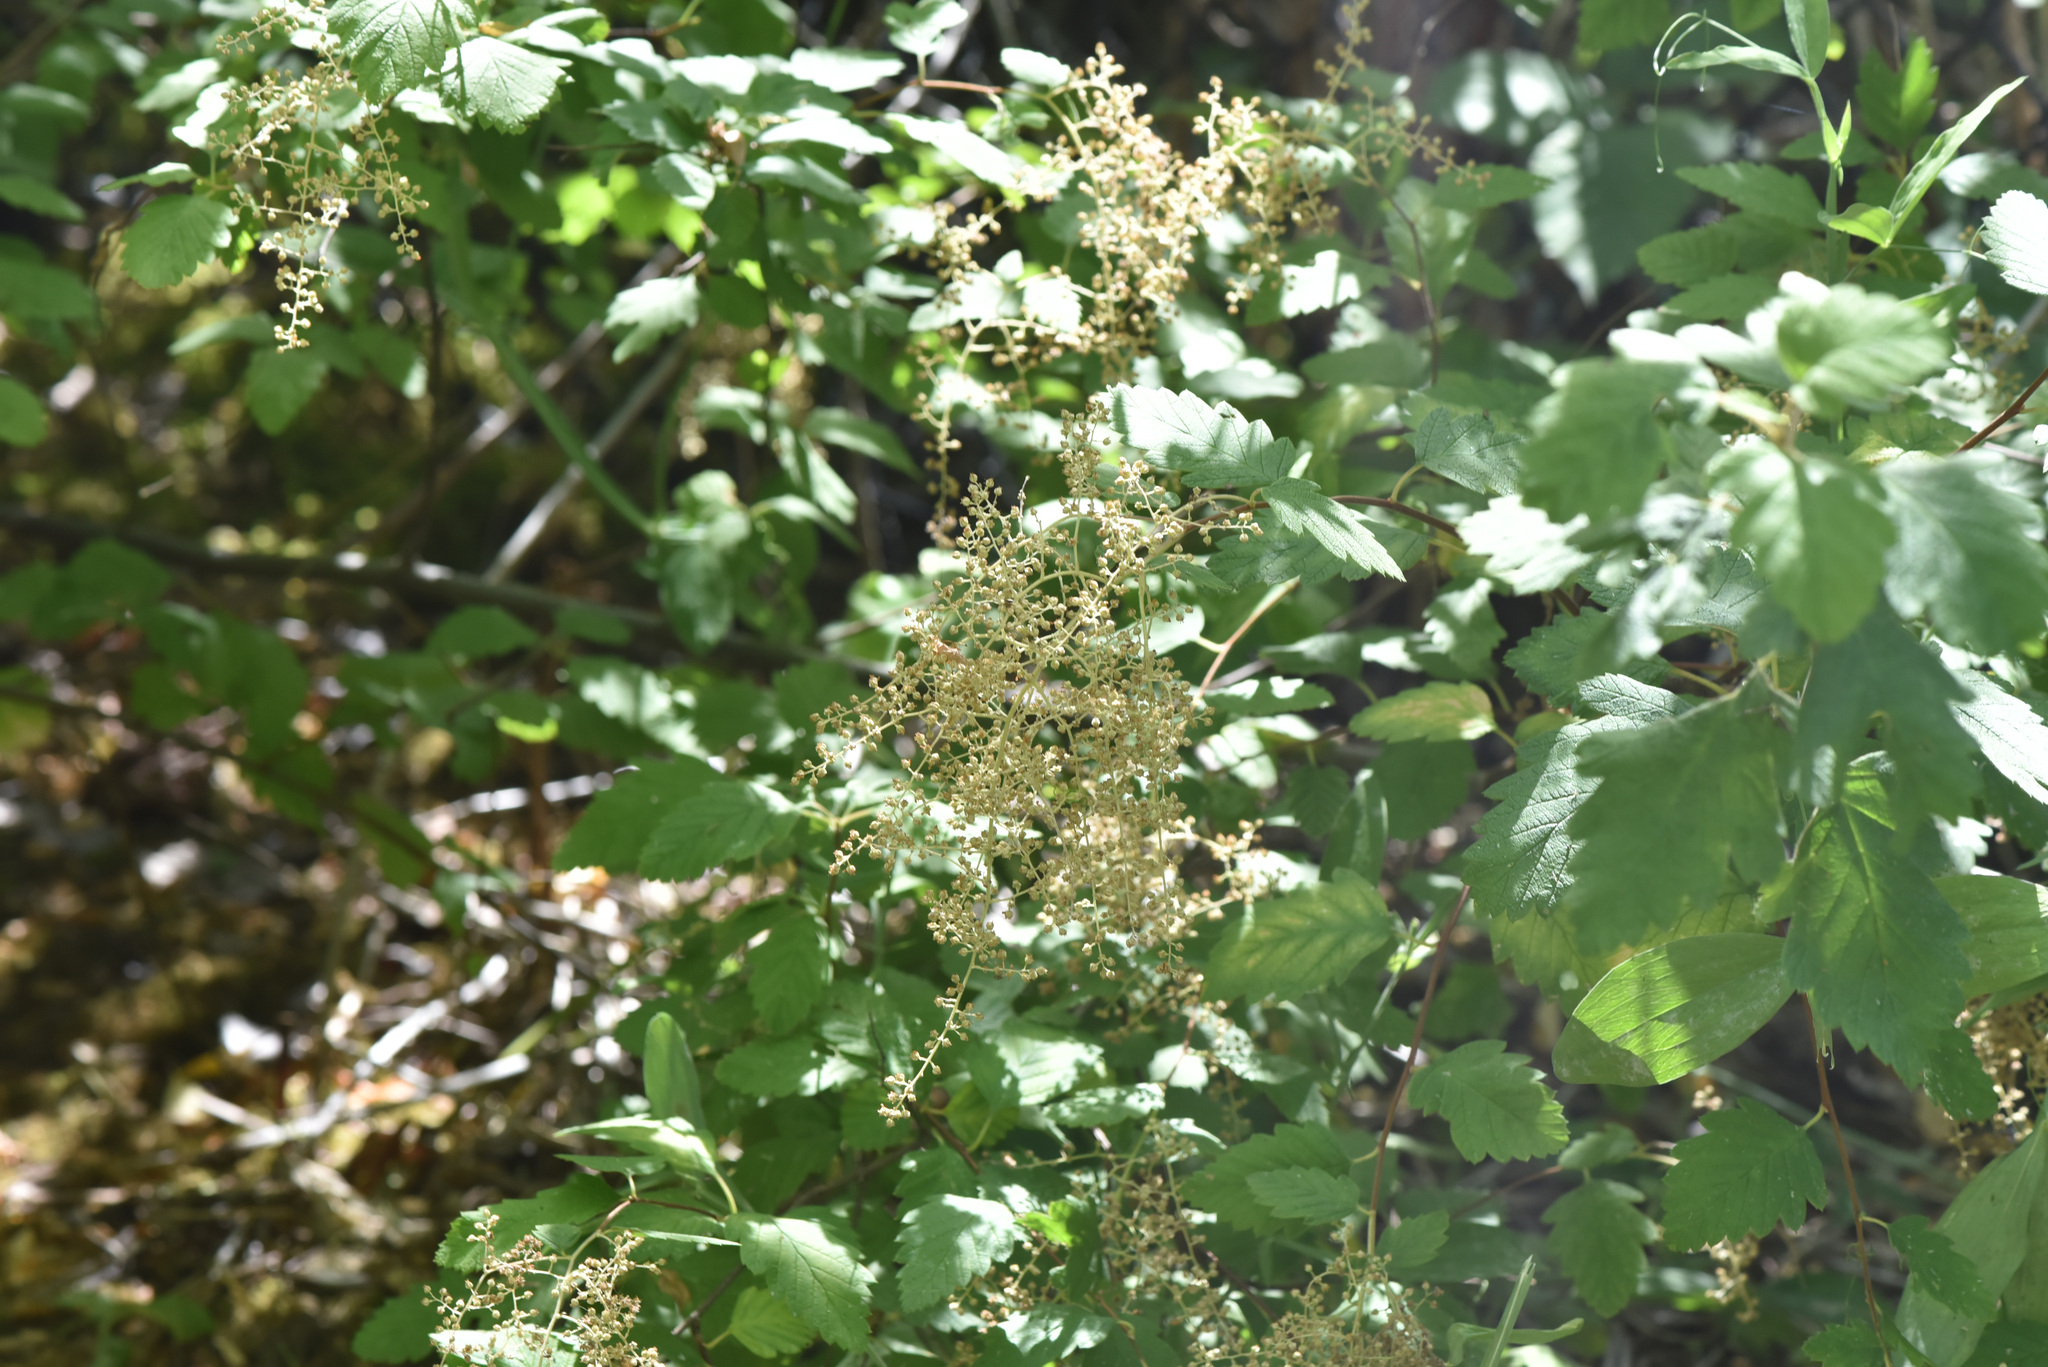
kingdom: Plantae
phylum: Tracheophyta
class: Magnoliopsida
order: Rosales
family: Rosaceae
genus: Holodiscus
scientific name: Holodiscus discolor
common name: Oceanspray
